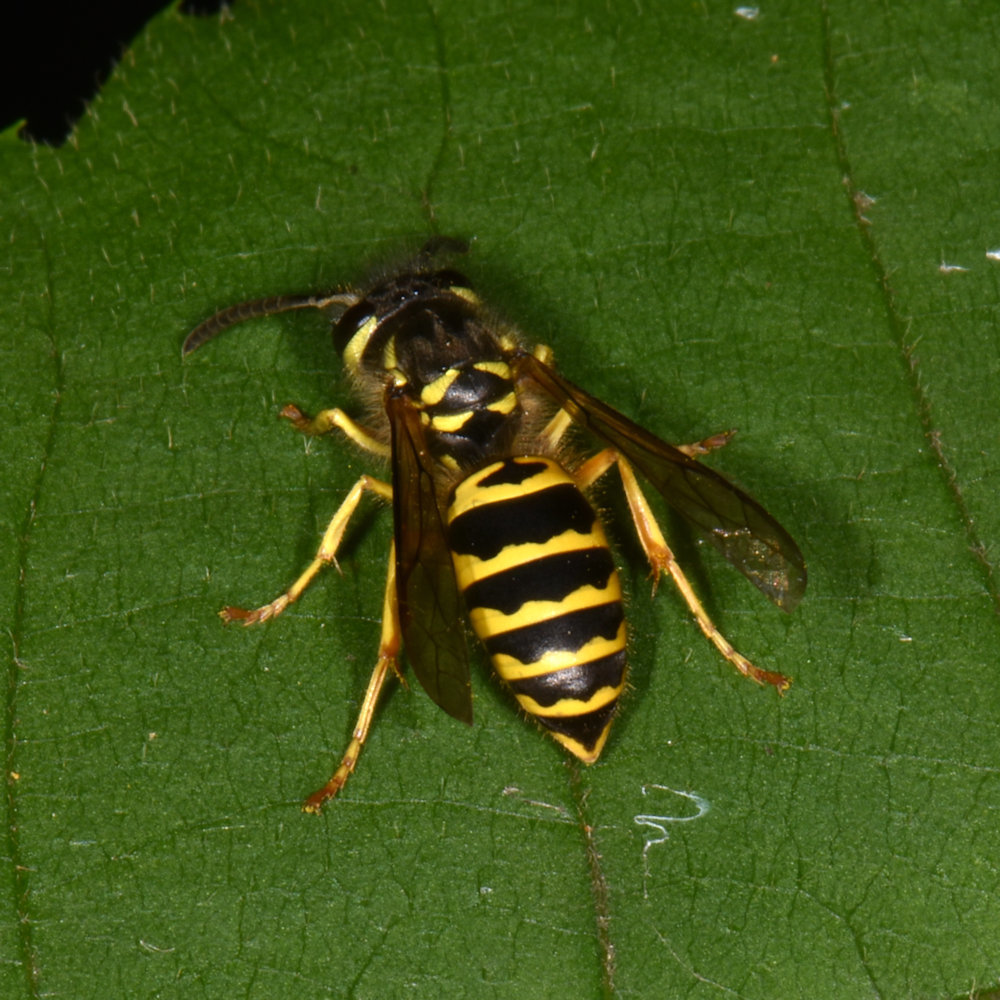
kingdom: Animalia
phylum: Arthropoda
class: Insecta
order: Hymenoptera
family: Vespidae
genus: Vespula
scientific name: Vespula maculifrons
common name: Eastern yellowjacket
